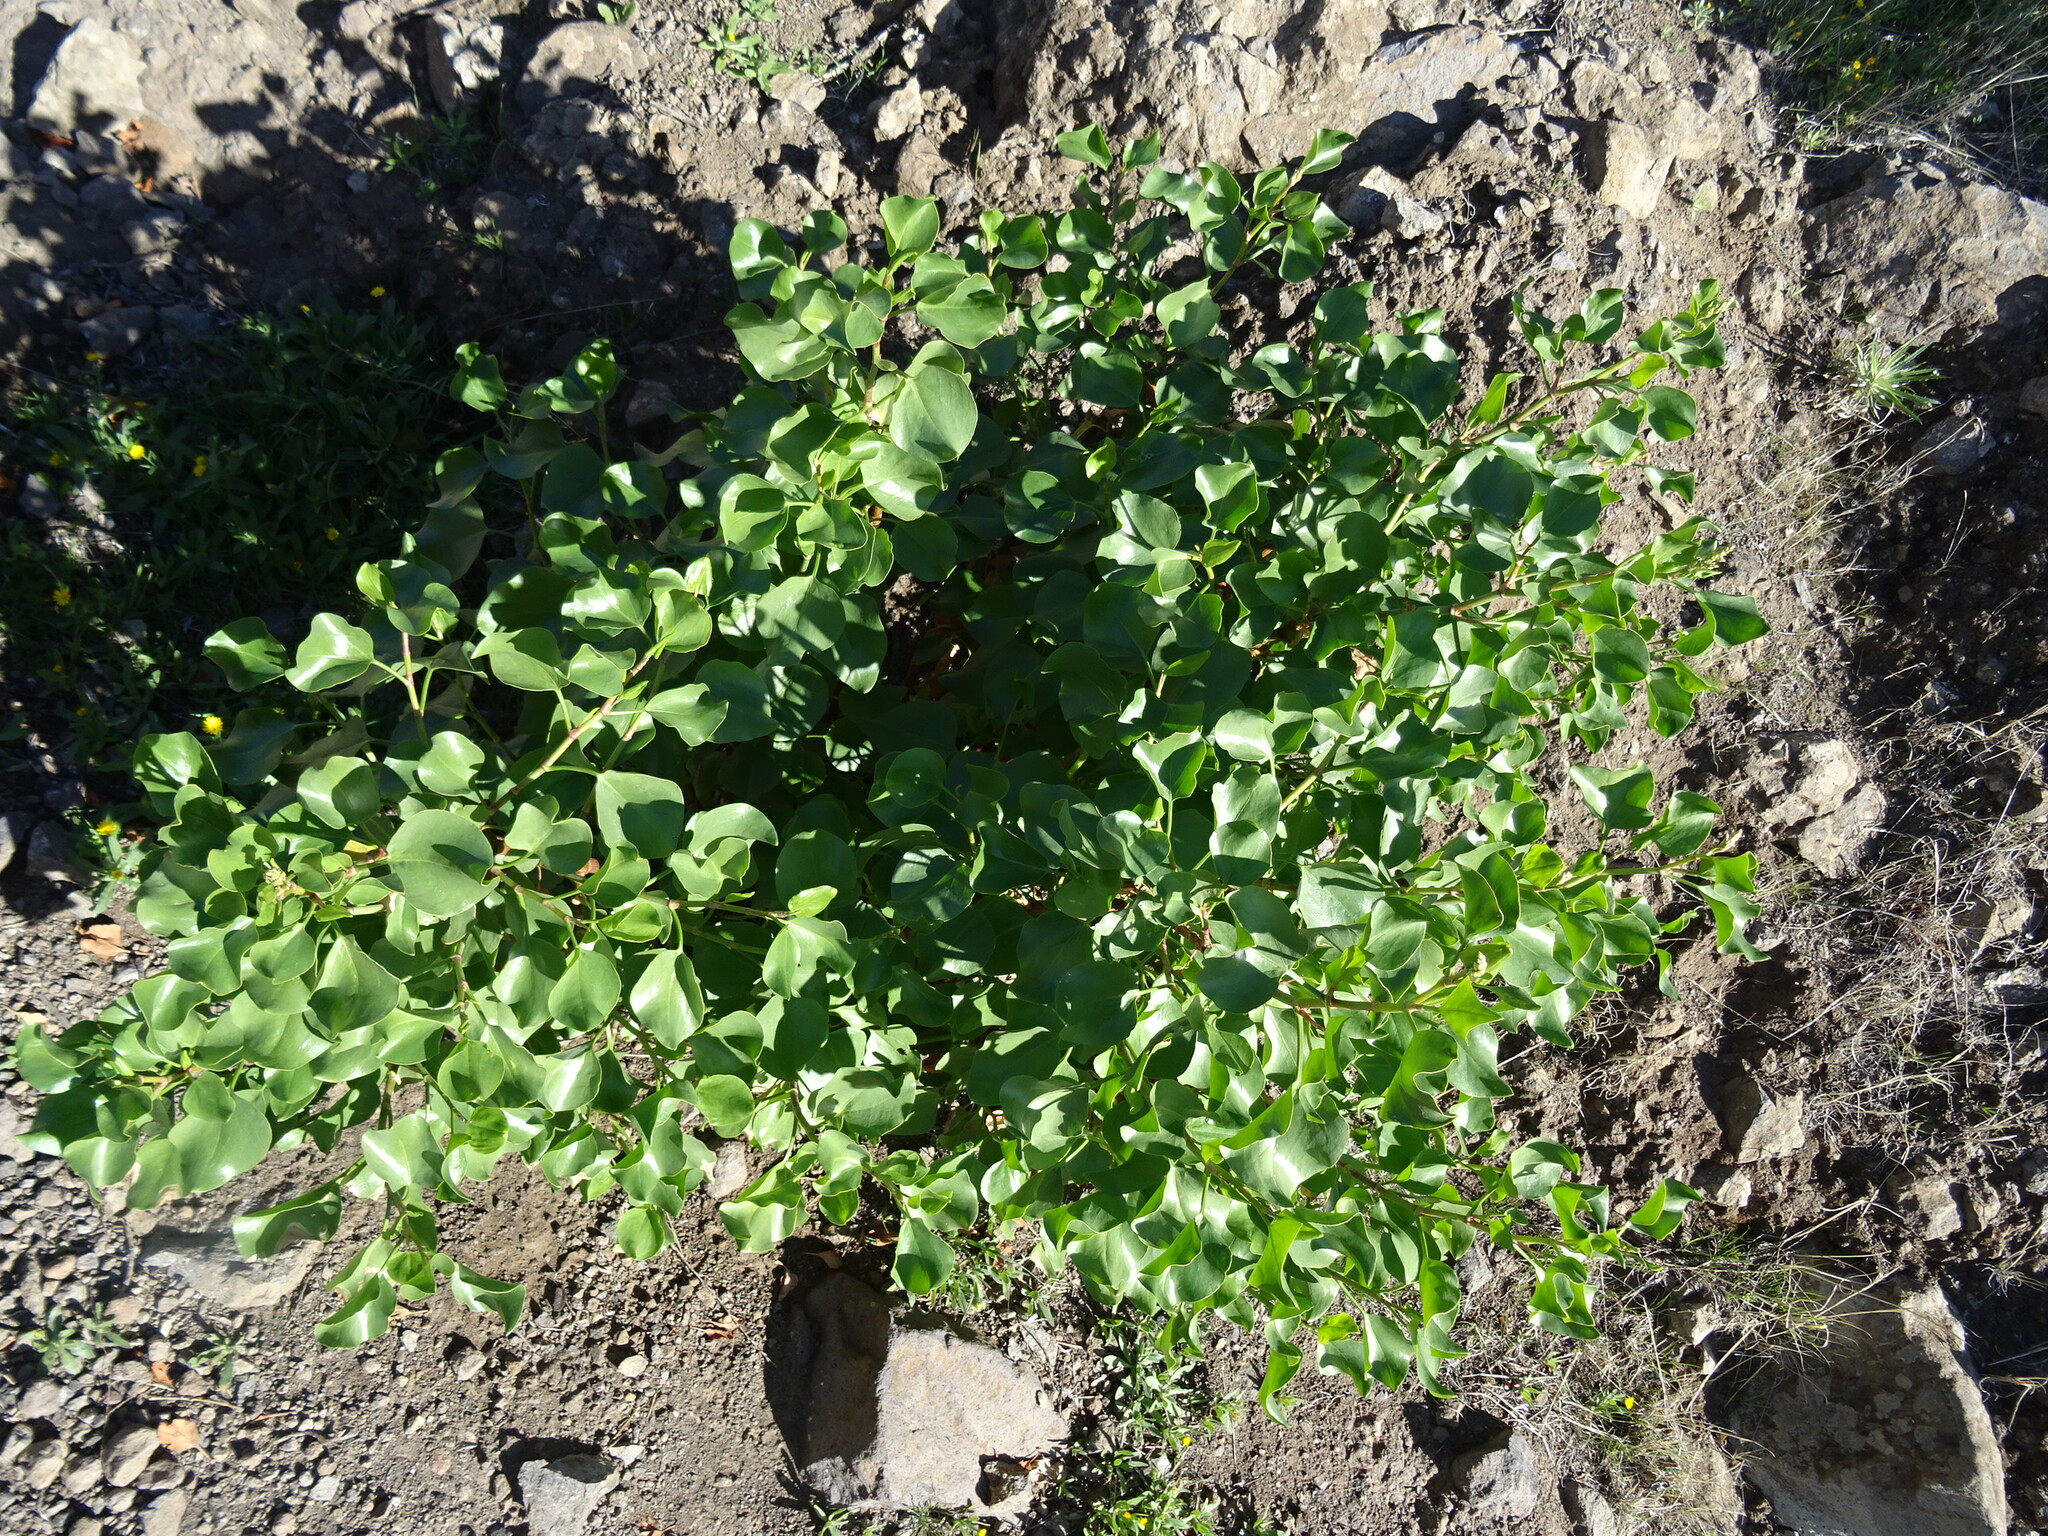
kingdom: Plantae
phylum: Tracheophyta
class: Magnoliopsida
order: Caryophyllales
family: Polygonaceae
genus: Rumex
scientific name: Rumex lunaria
